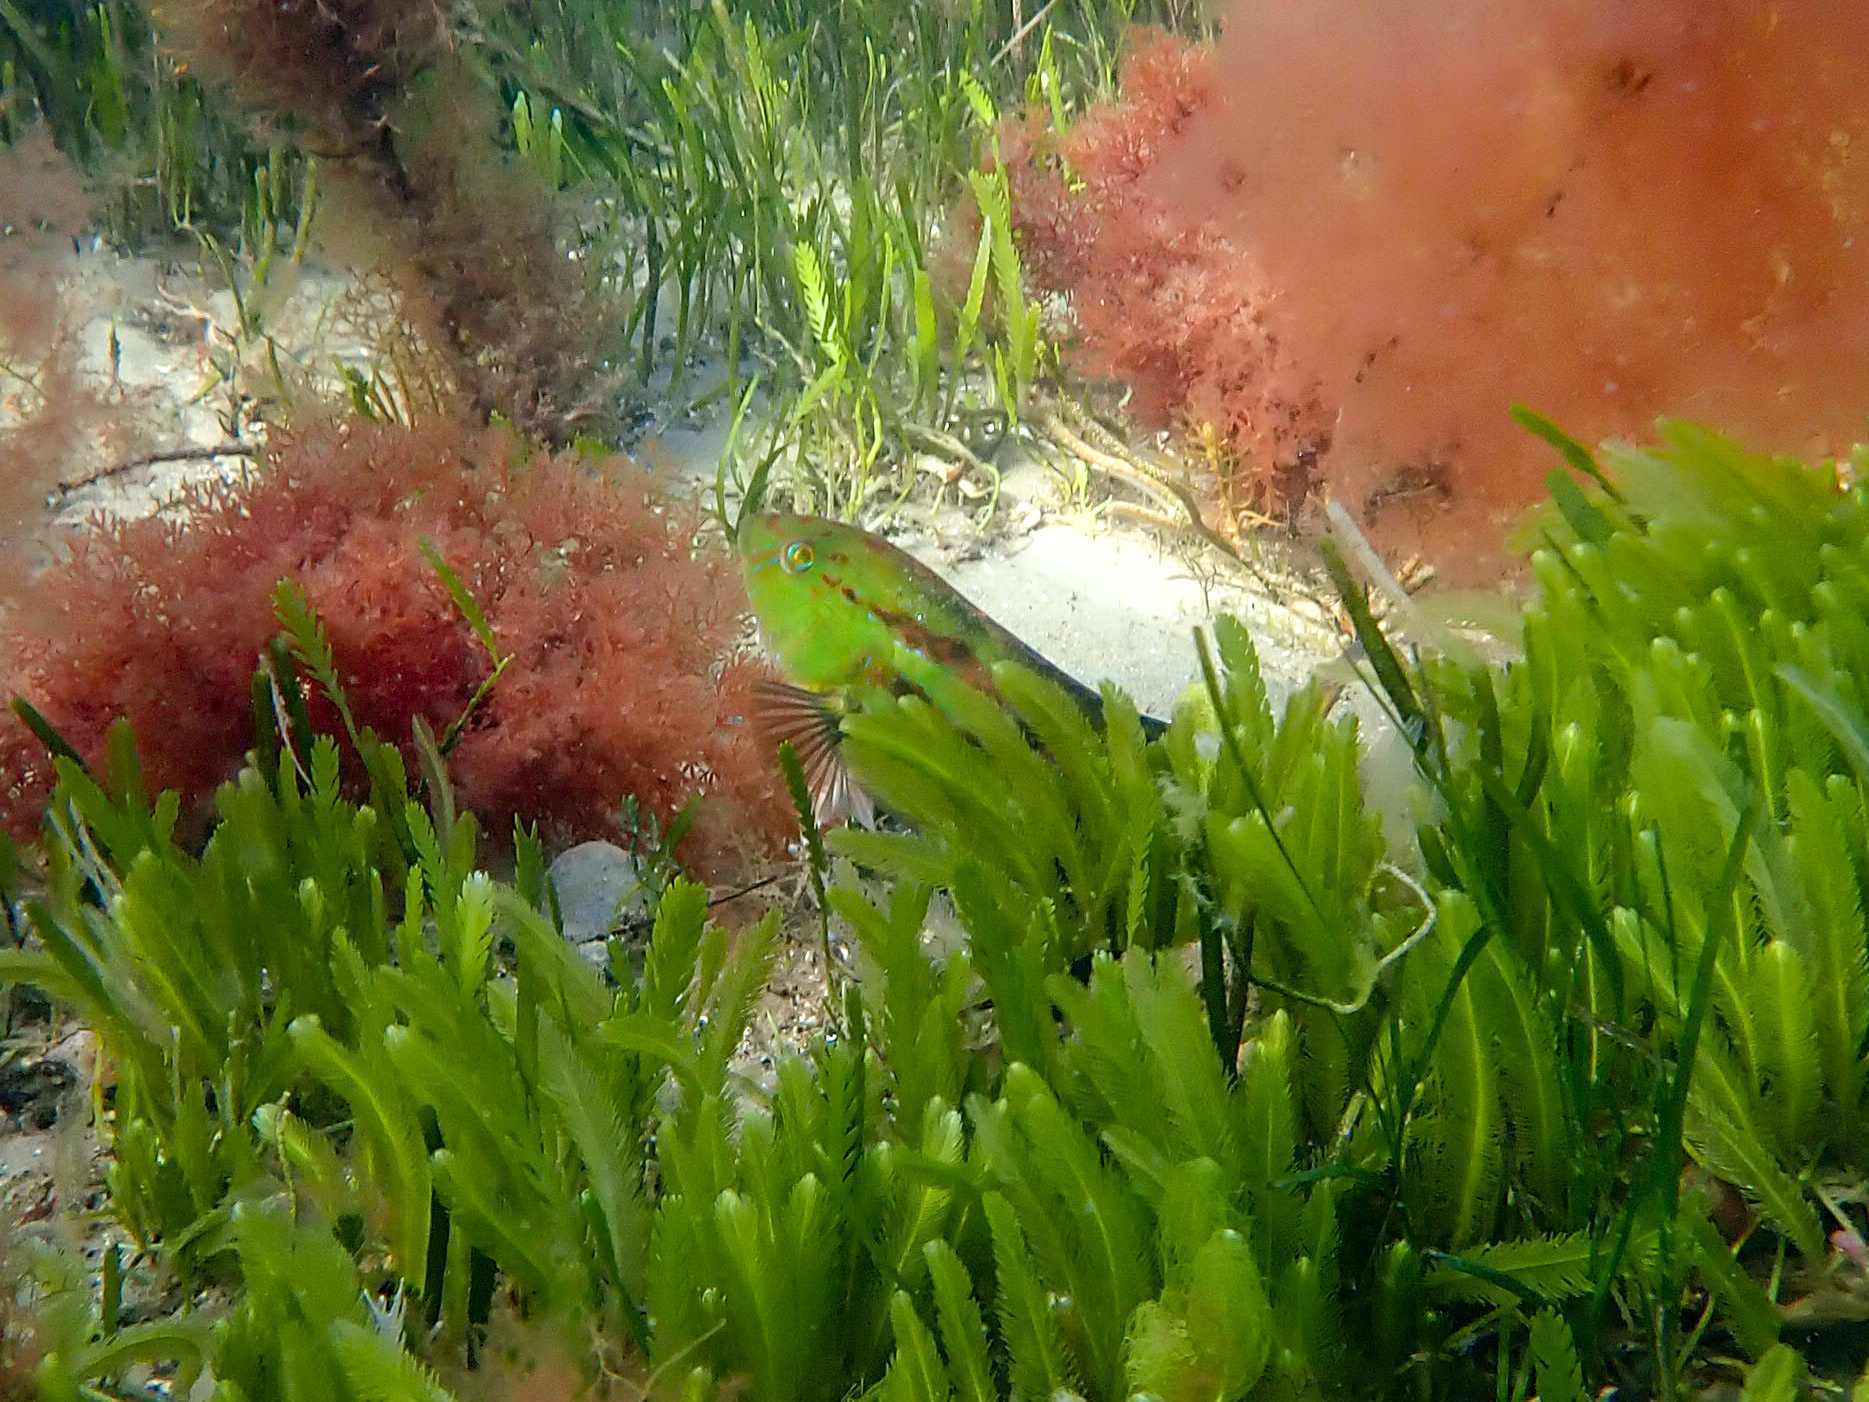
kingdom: Animalia
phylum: Chordata
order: Perciformes
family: Labridae
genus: Pictilabrus
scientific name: Pictilabrus laticlavius
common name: Patrician wrasse
